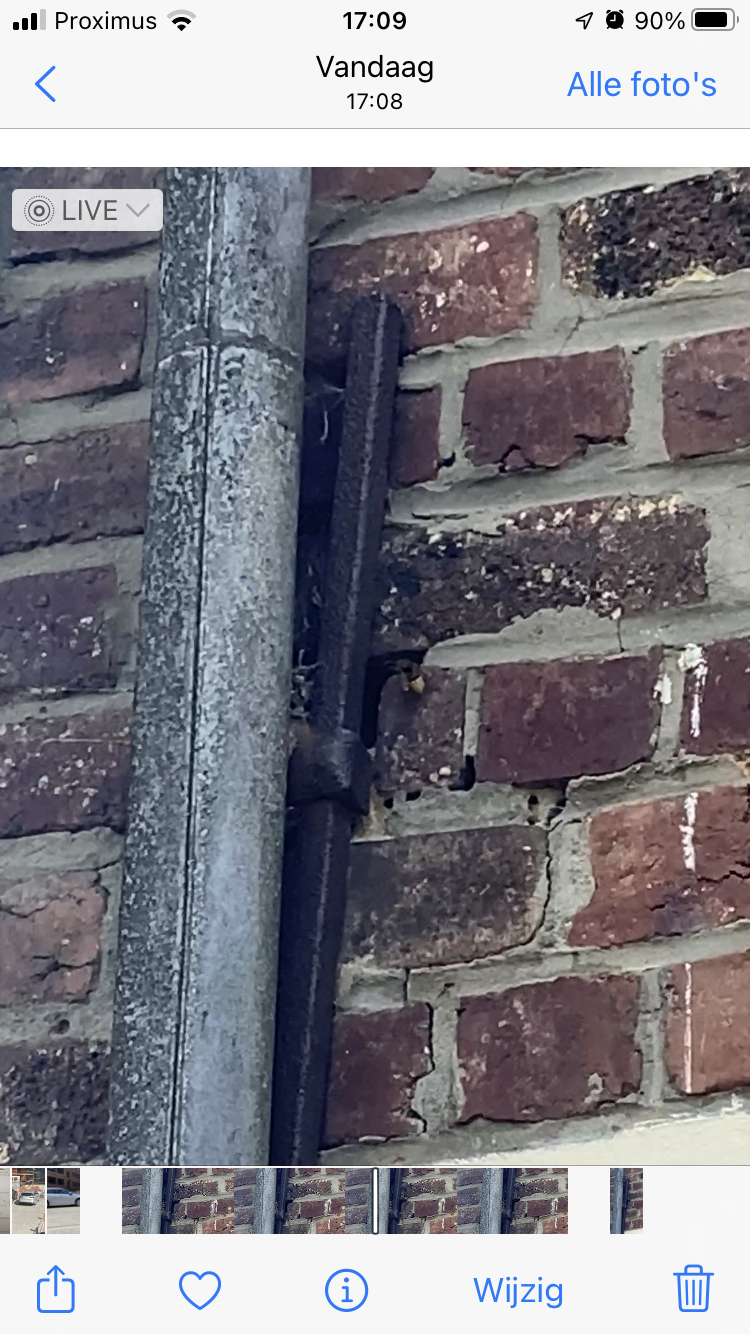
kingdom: Animalia
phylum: Arthropoda
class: Insecta
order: Hymenoptera
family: Vespidae
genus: Vespa
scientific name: Vespa crabro
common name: Hornet
